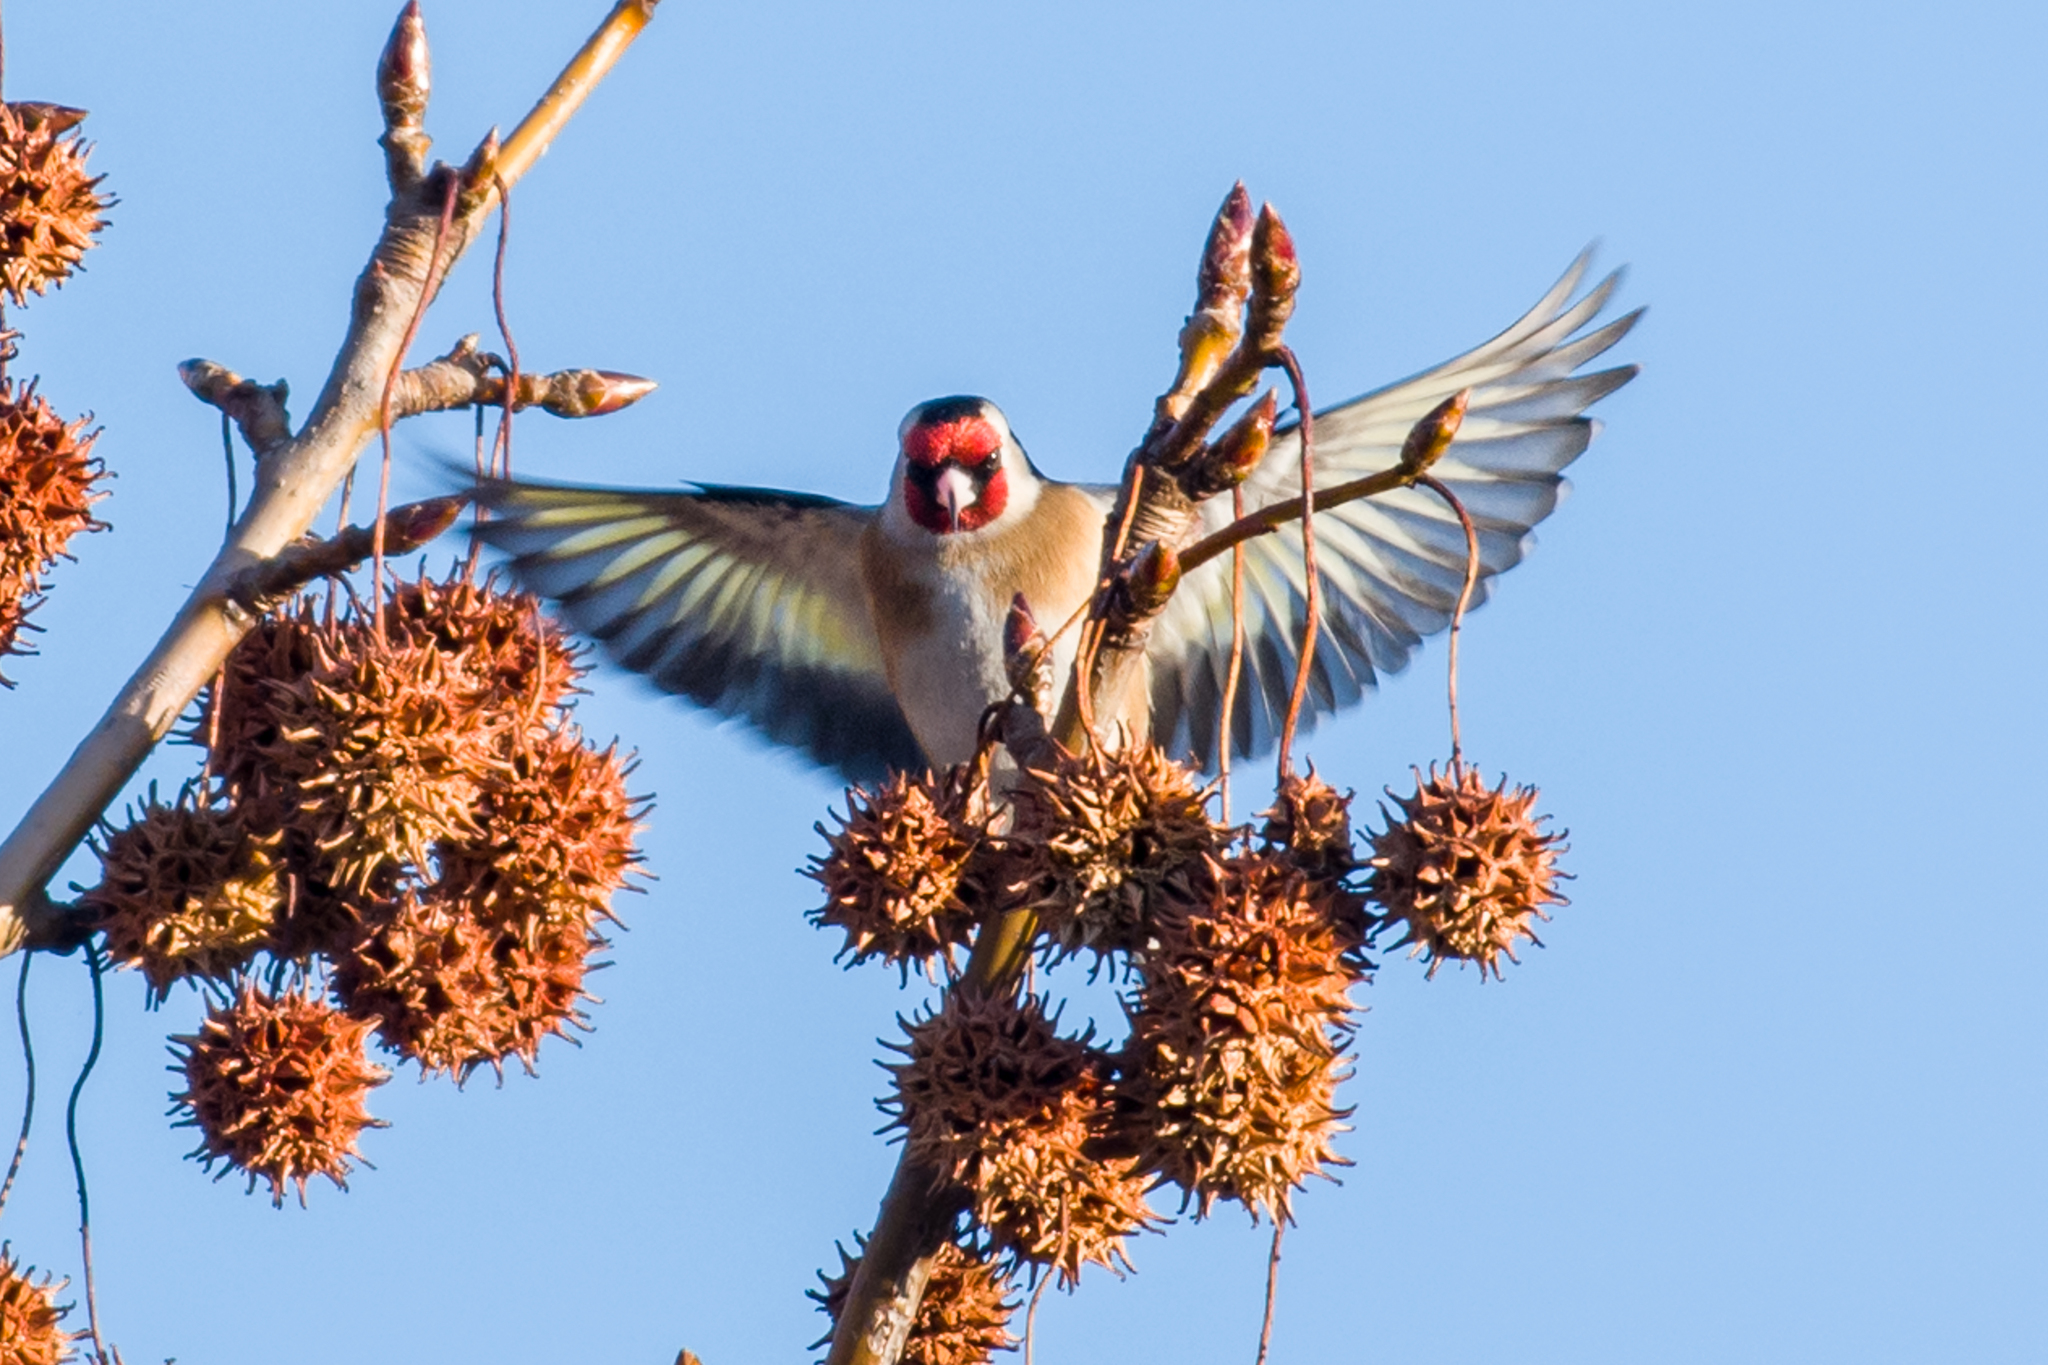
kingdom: Animalia
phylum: Chordata
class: Aves
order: Passeriformes
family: Fringillidae
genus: Carduelis
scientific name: Carduelis carduelis
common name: European goldfinch
